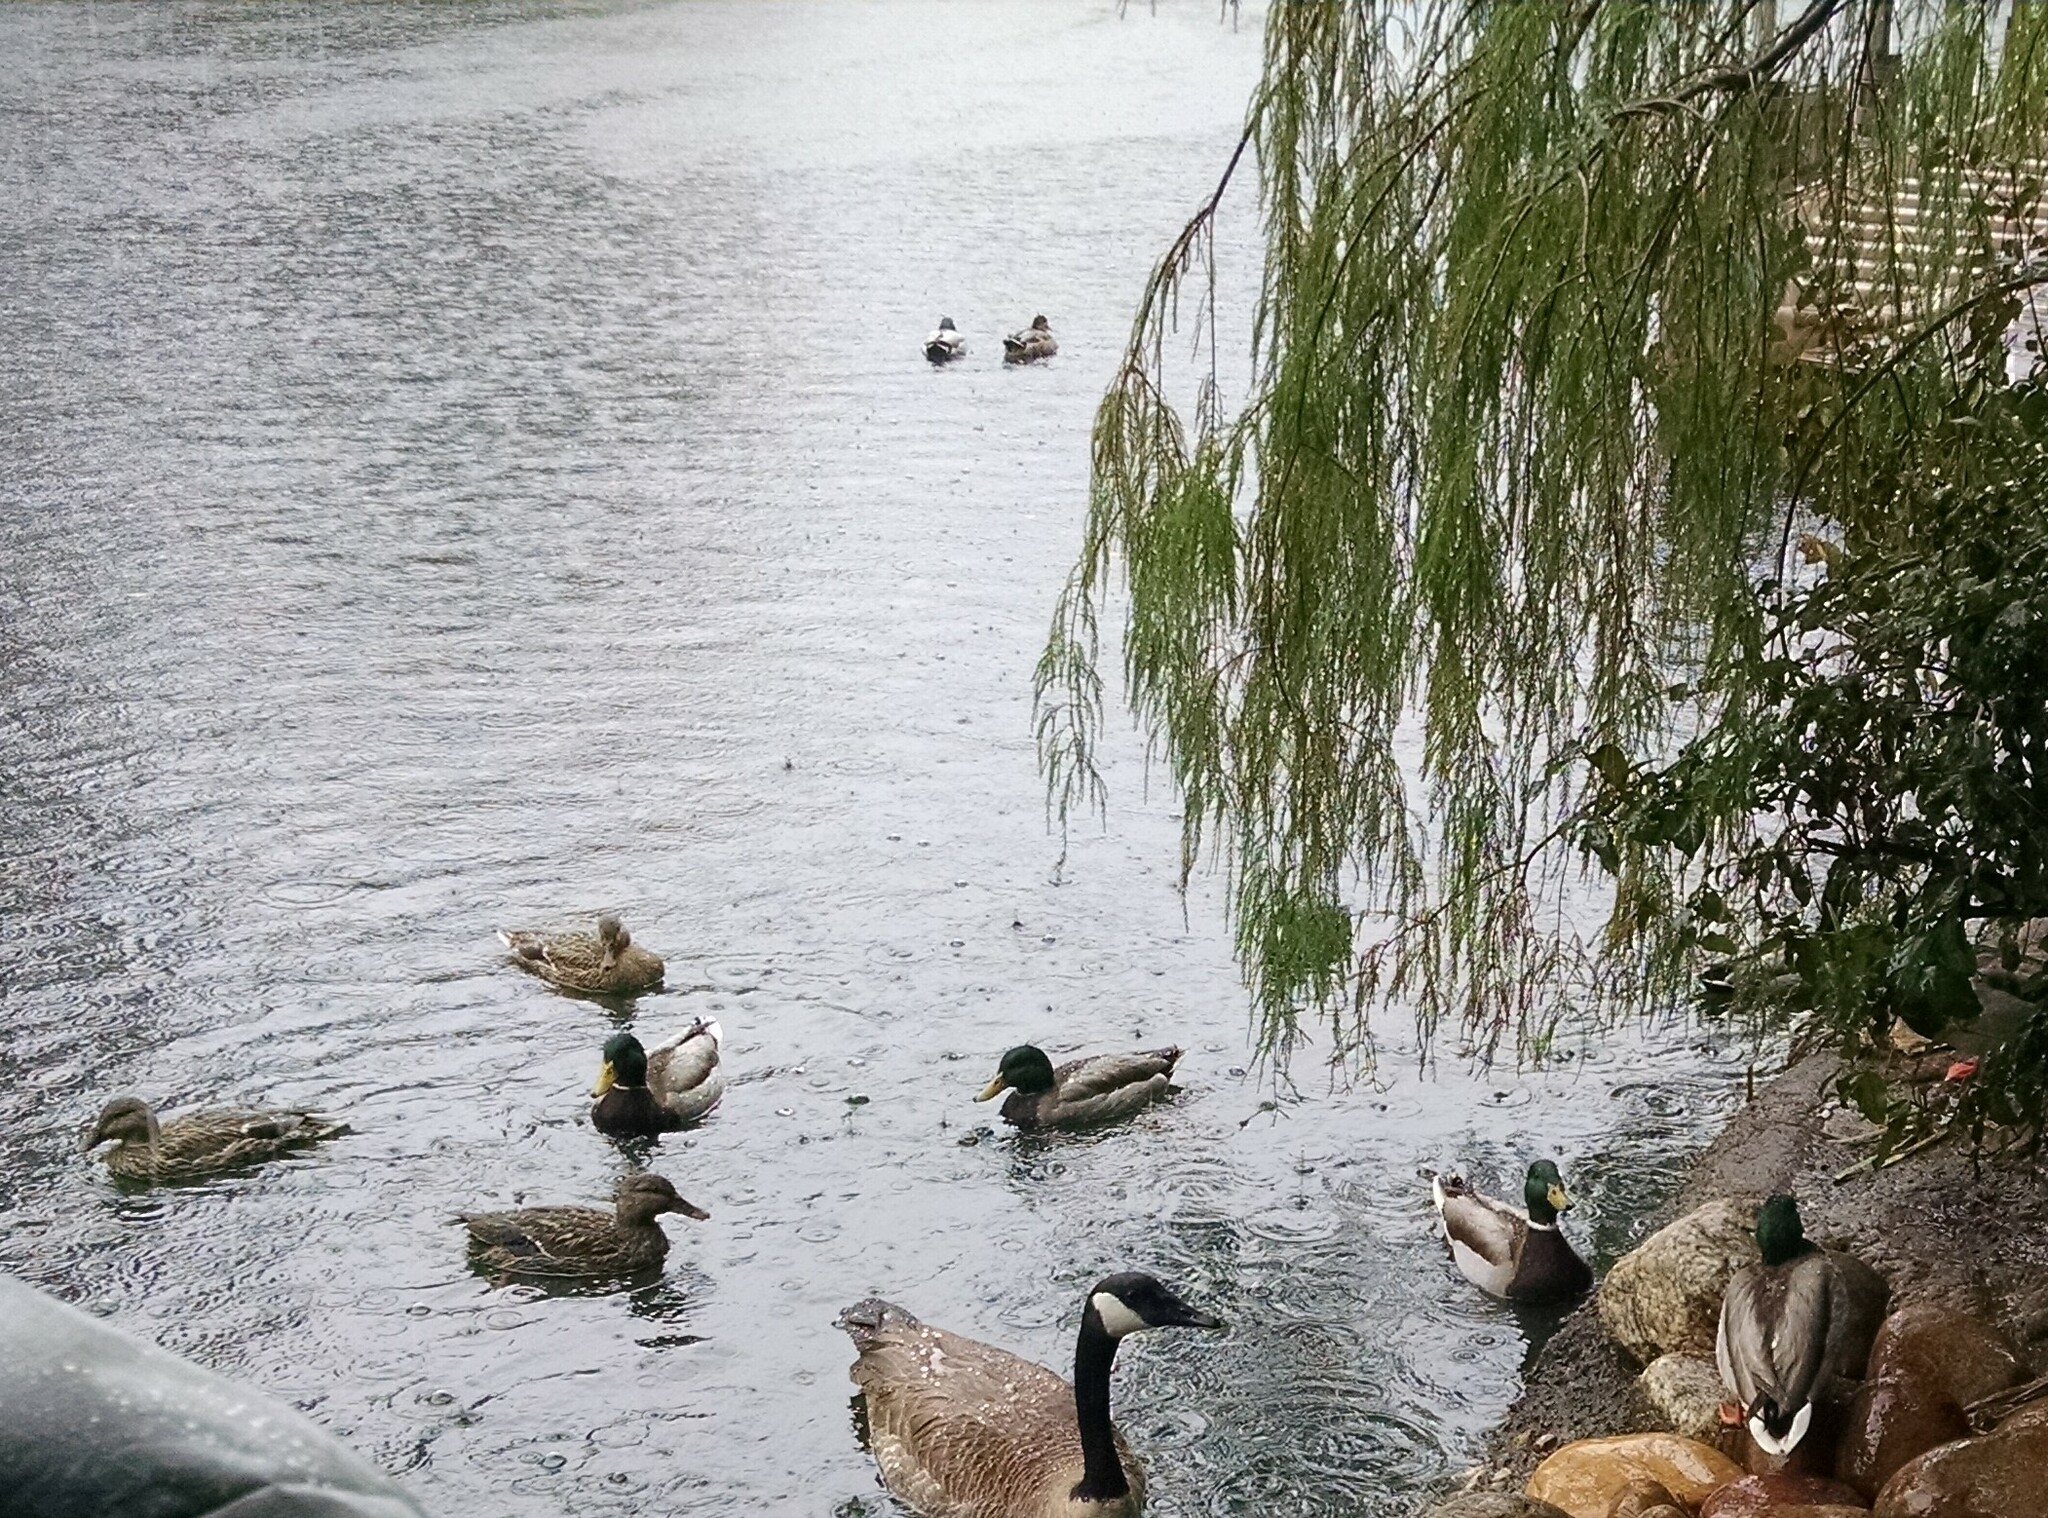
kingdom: Animalia
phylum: Chordata
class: Aves
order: Anseriformes
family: Anatidae
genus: Anas
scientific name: Anas platyrhynchos
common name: Mallard
